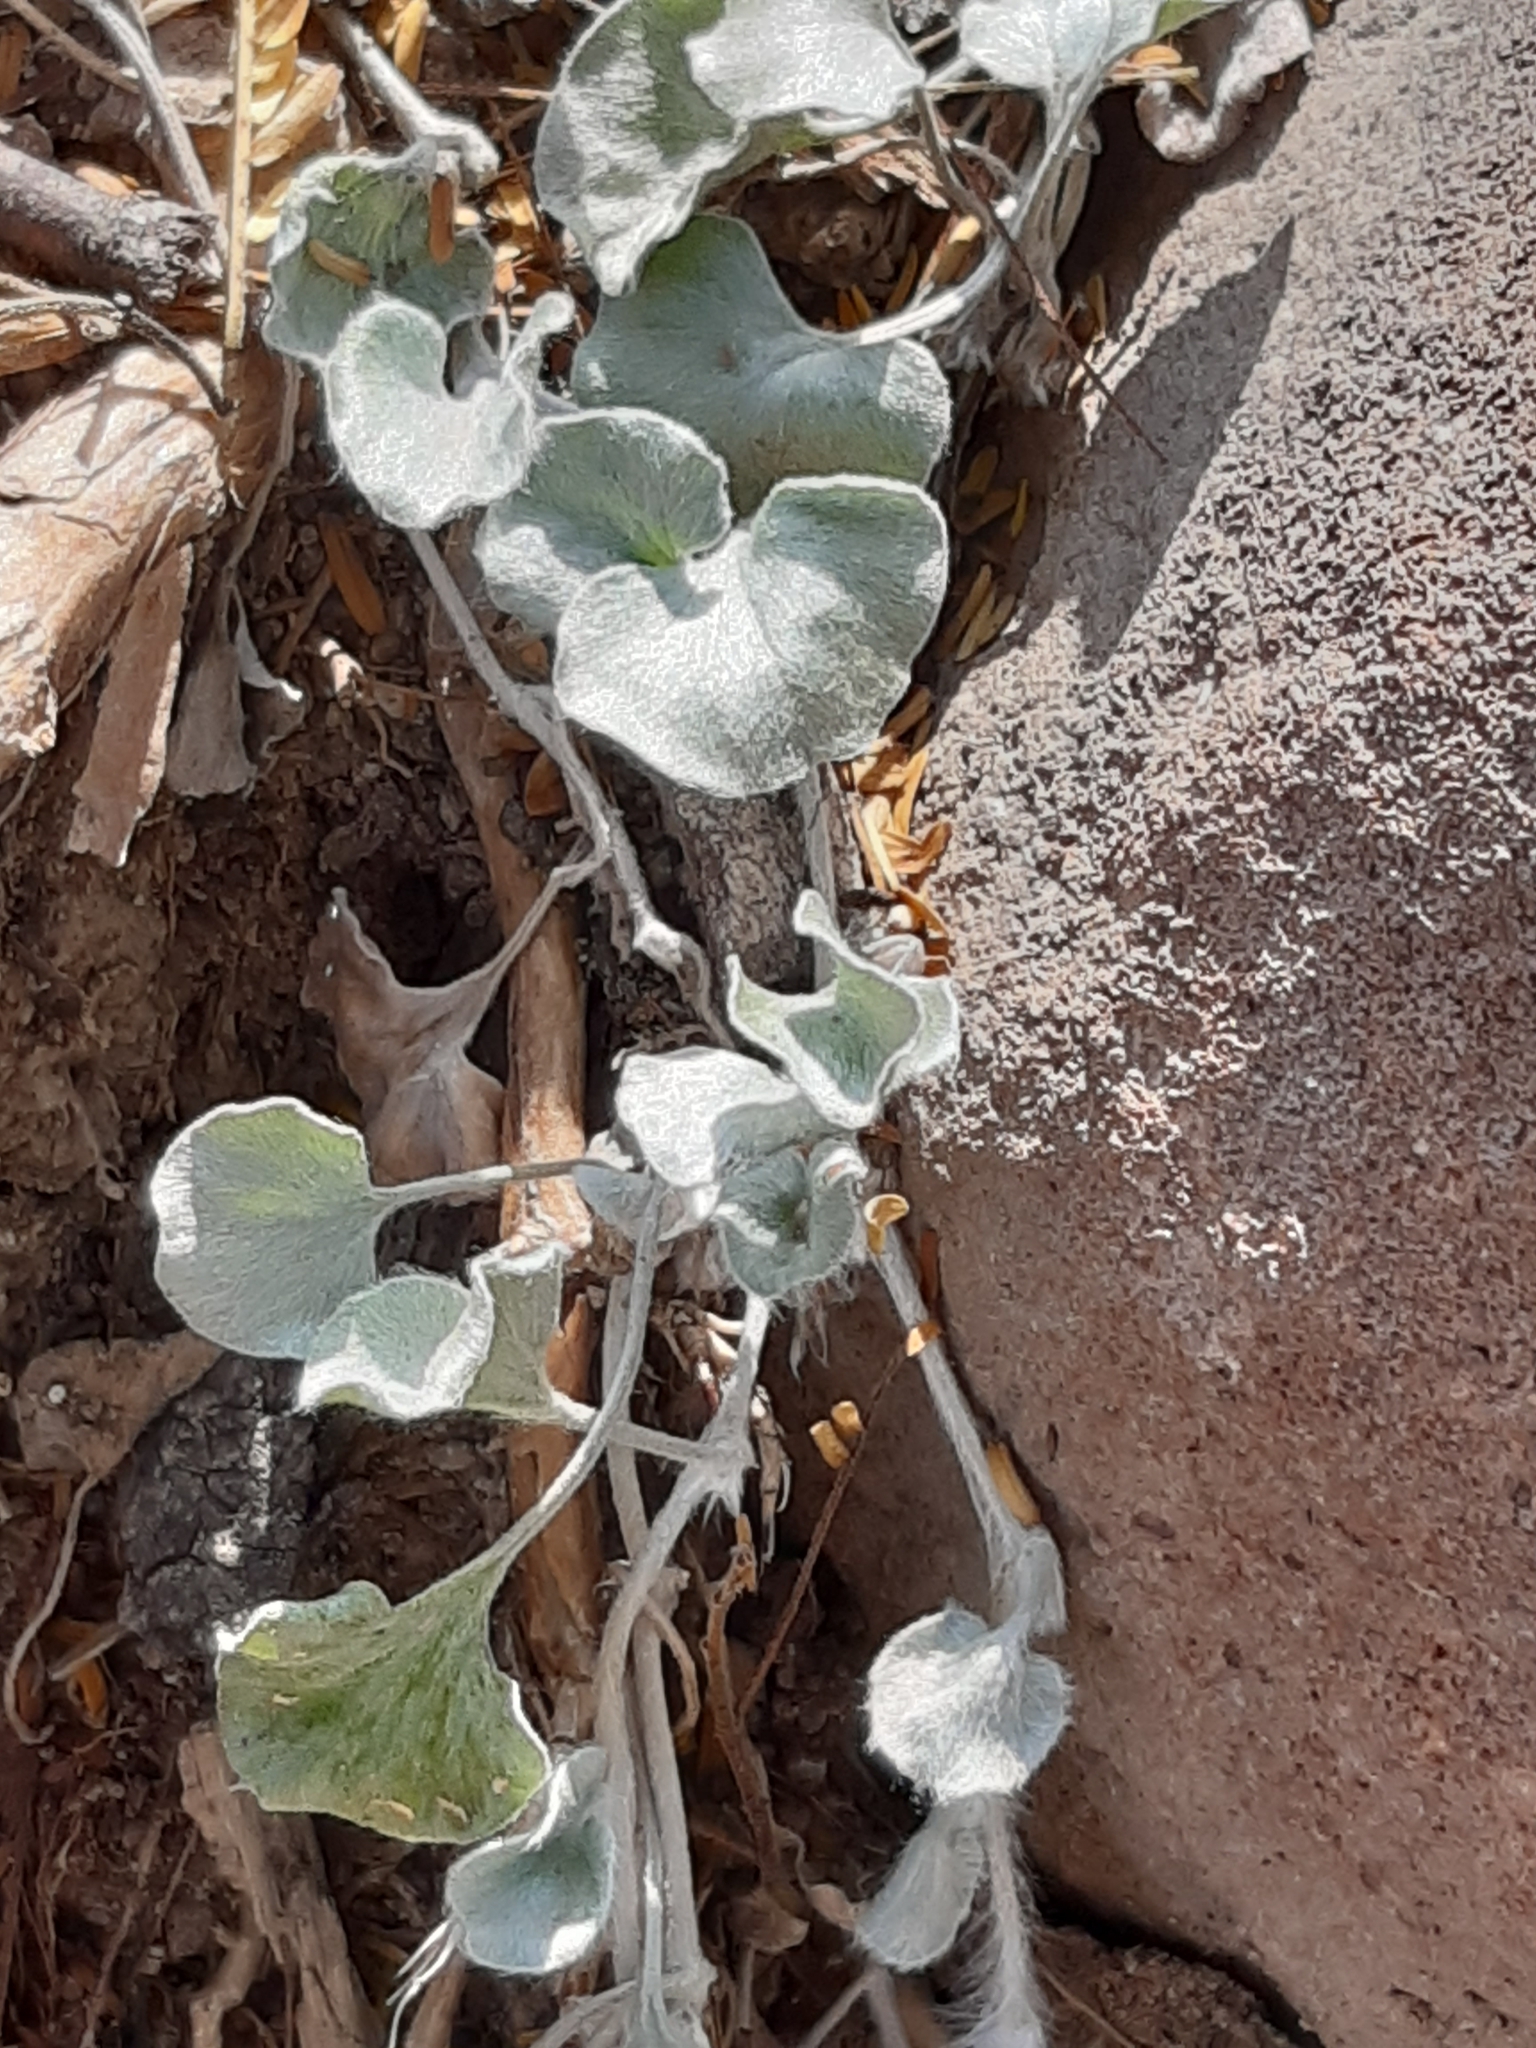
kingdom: Plantae
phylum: Tracheophyta
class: Magnoliopsida
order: Solanales
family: Convolvulaceae
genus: Dichondra
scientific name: Dichondra argentea
